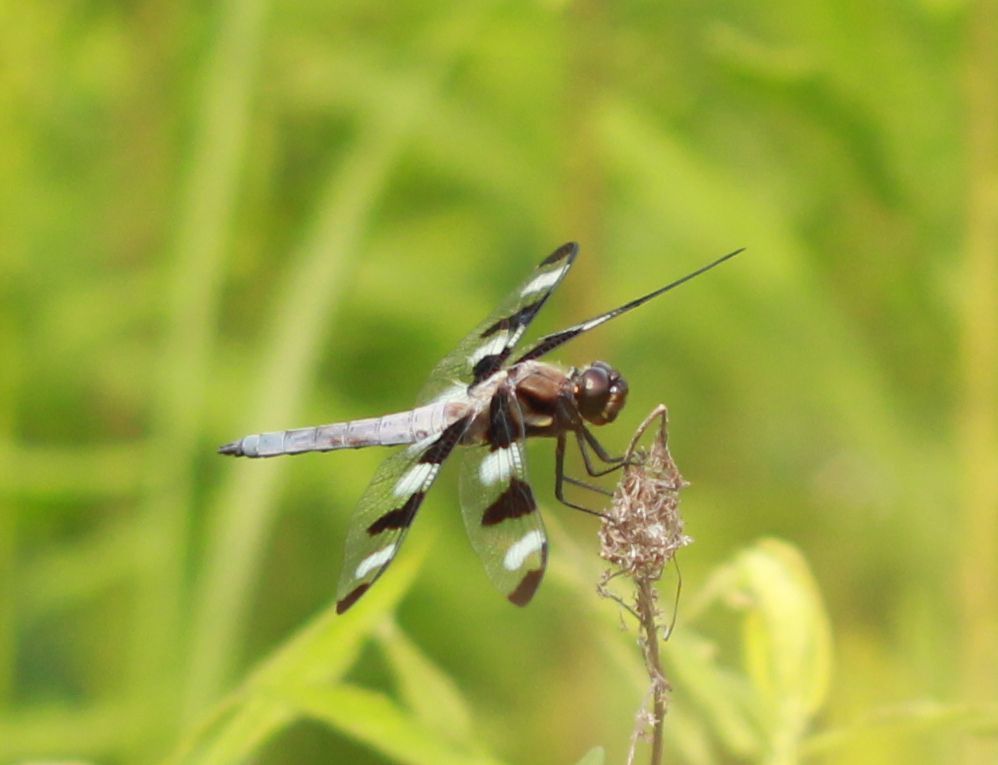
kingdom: Animalia
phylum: Arthropoda
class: Insecta
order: Odonata
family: Libellulidae
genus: Libellula
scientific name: Libellula pulchella
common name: Twelve-spotted skimmer
